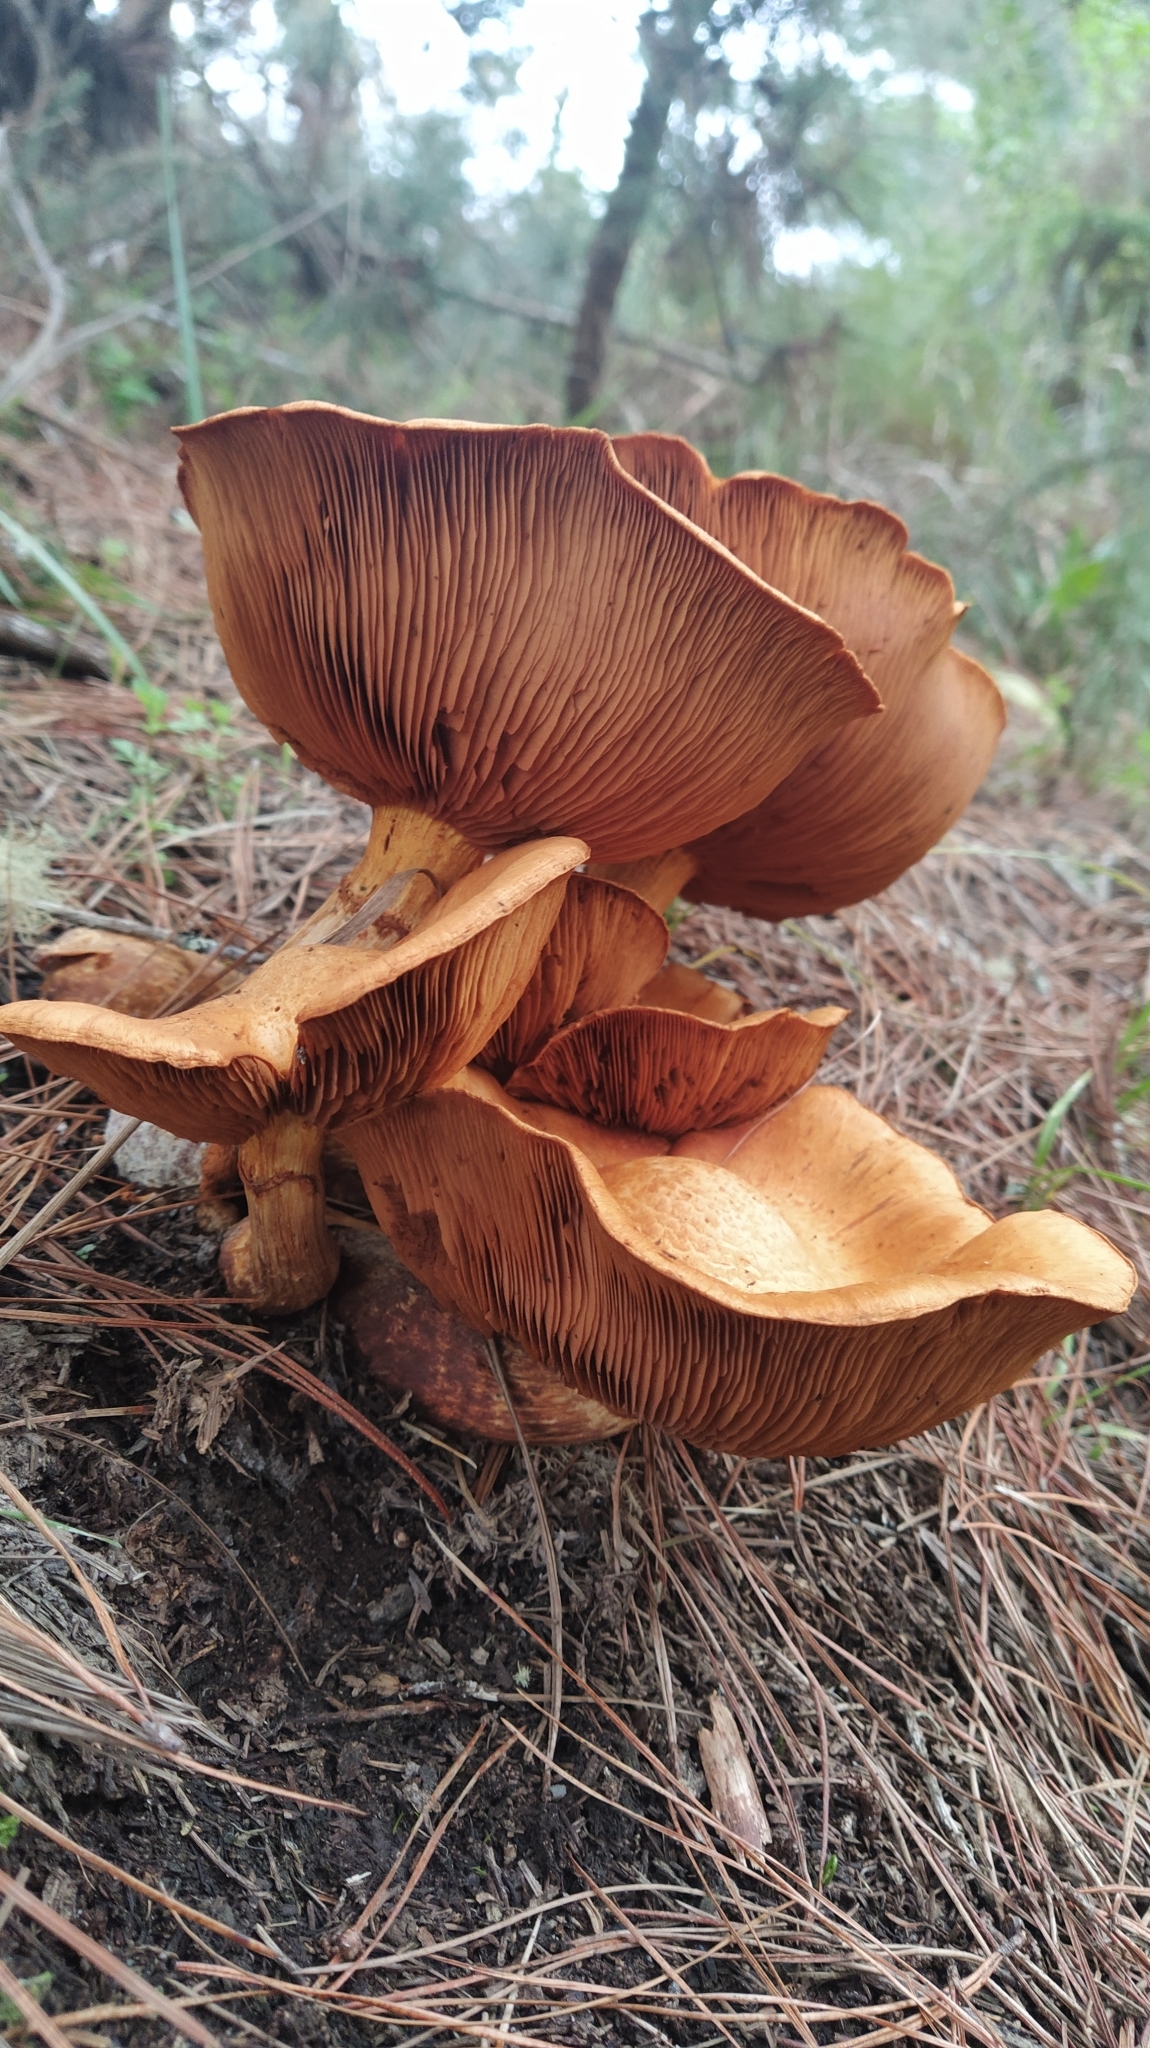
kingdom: Fungi
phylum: Basidiomycota
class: Agaricomycetes
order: Agaricales
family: Hymenogastraceae
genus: Gymnopilus
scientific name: Gymnopilus junonius
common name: Spectacular rustgill
